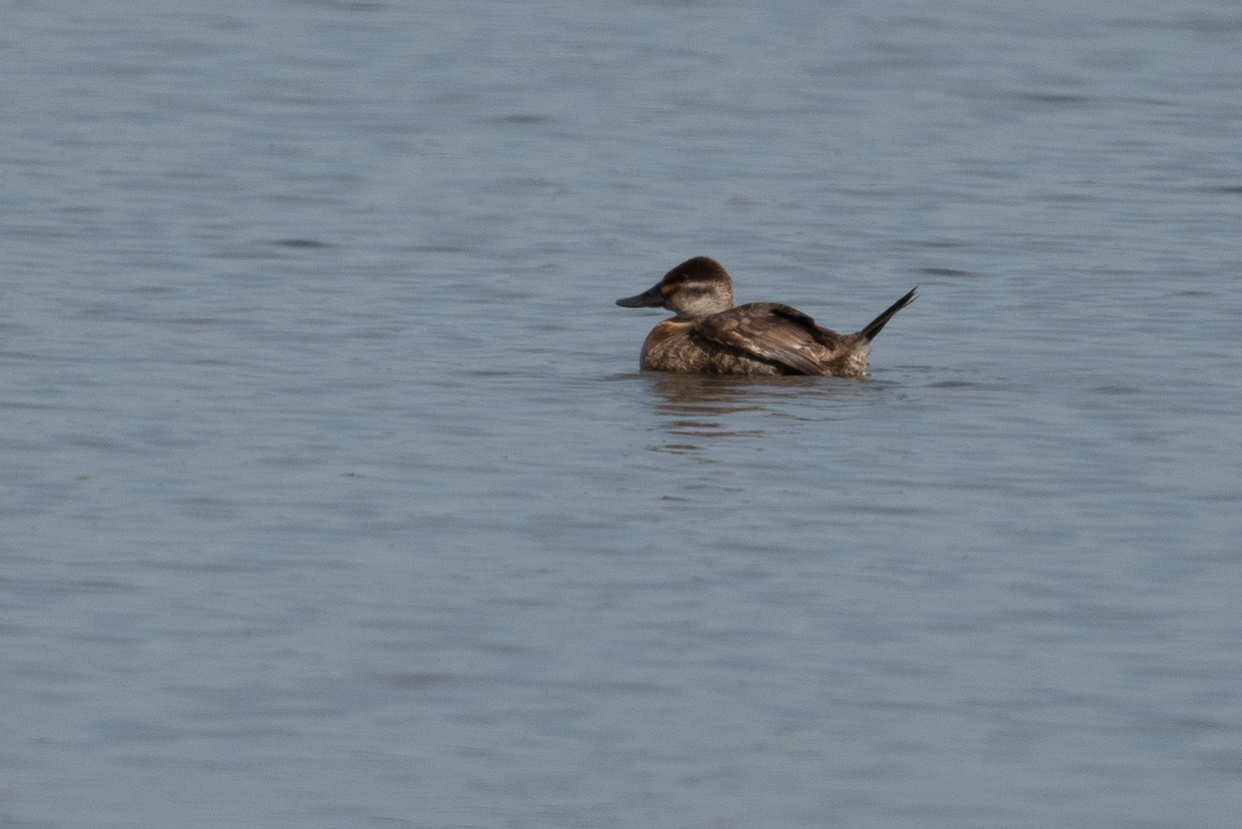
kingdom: Animalia
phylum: Chordata
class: Aves
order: Anseriformes
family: Anatidae
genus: Oxyura
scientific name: Oxyura jamaicensis
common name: Ruddy duck
